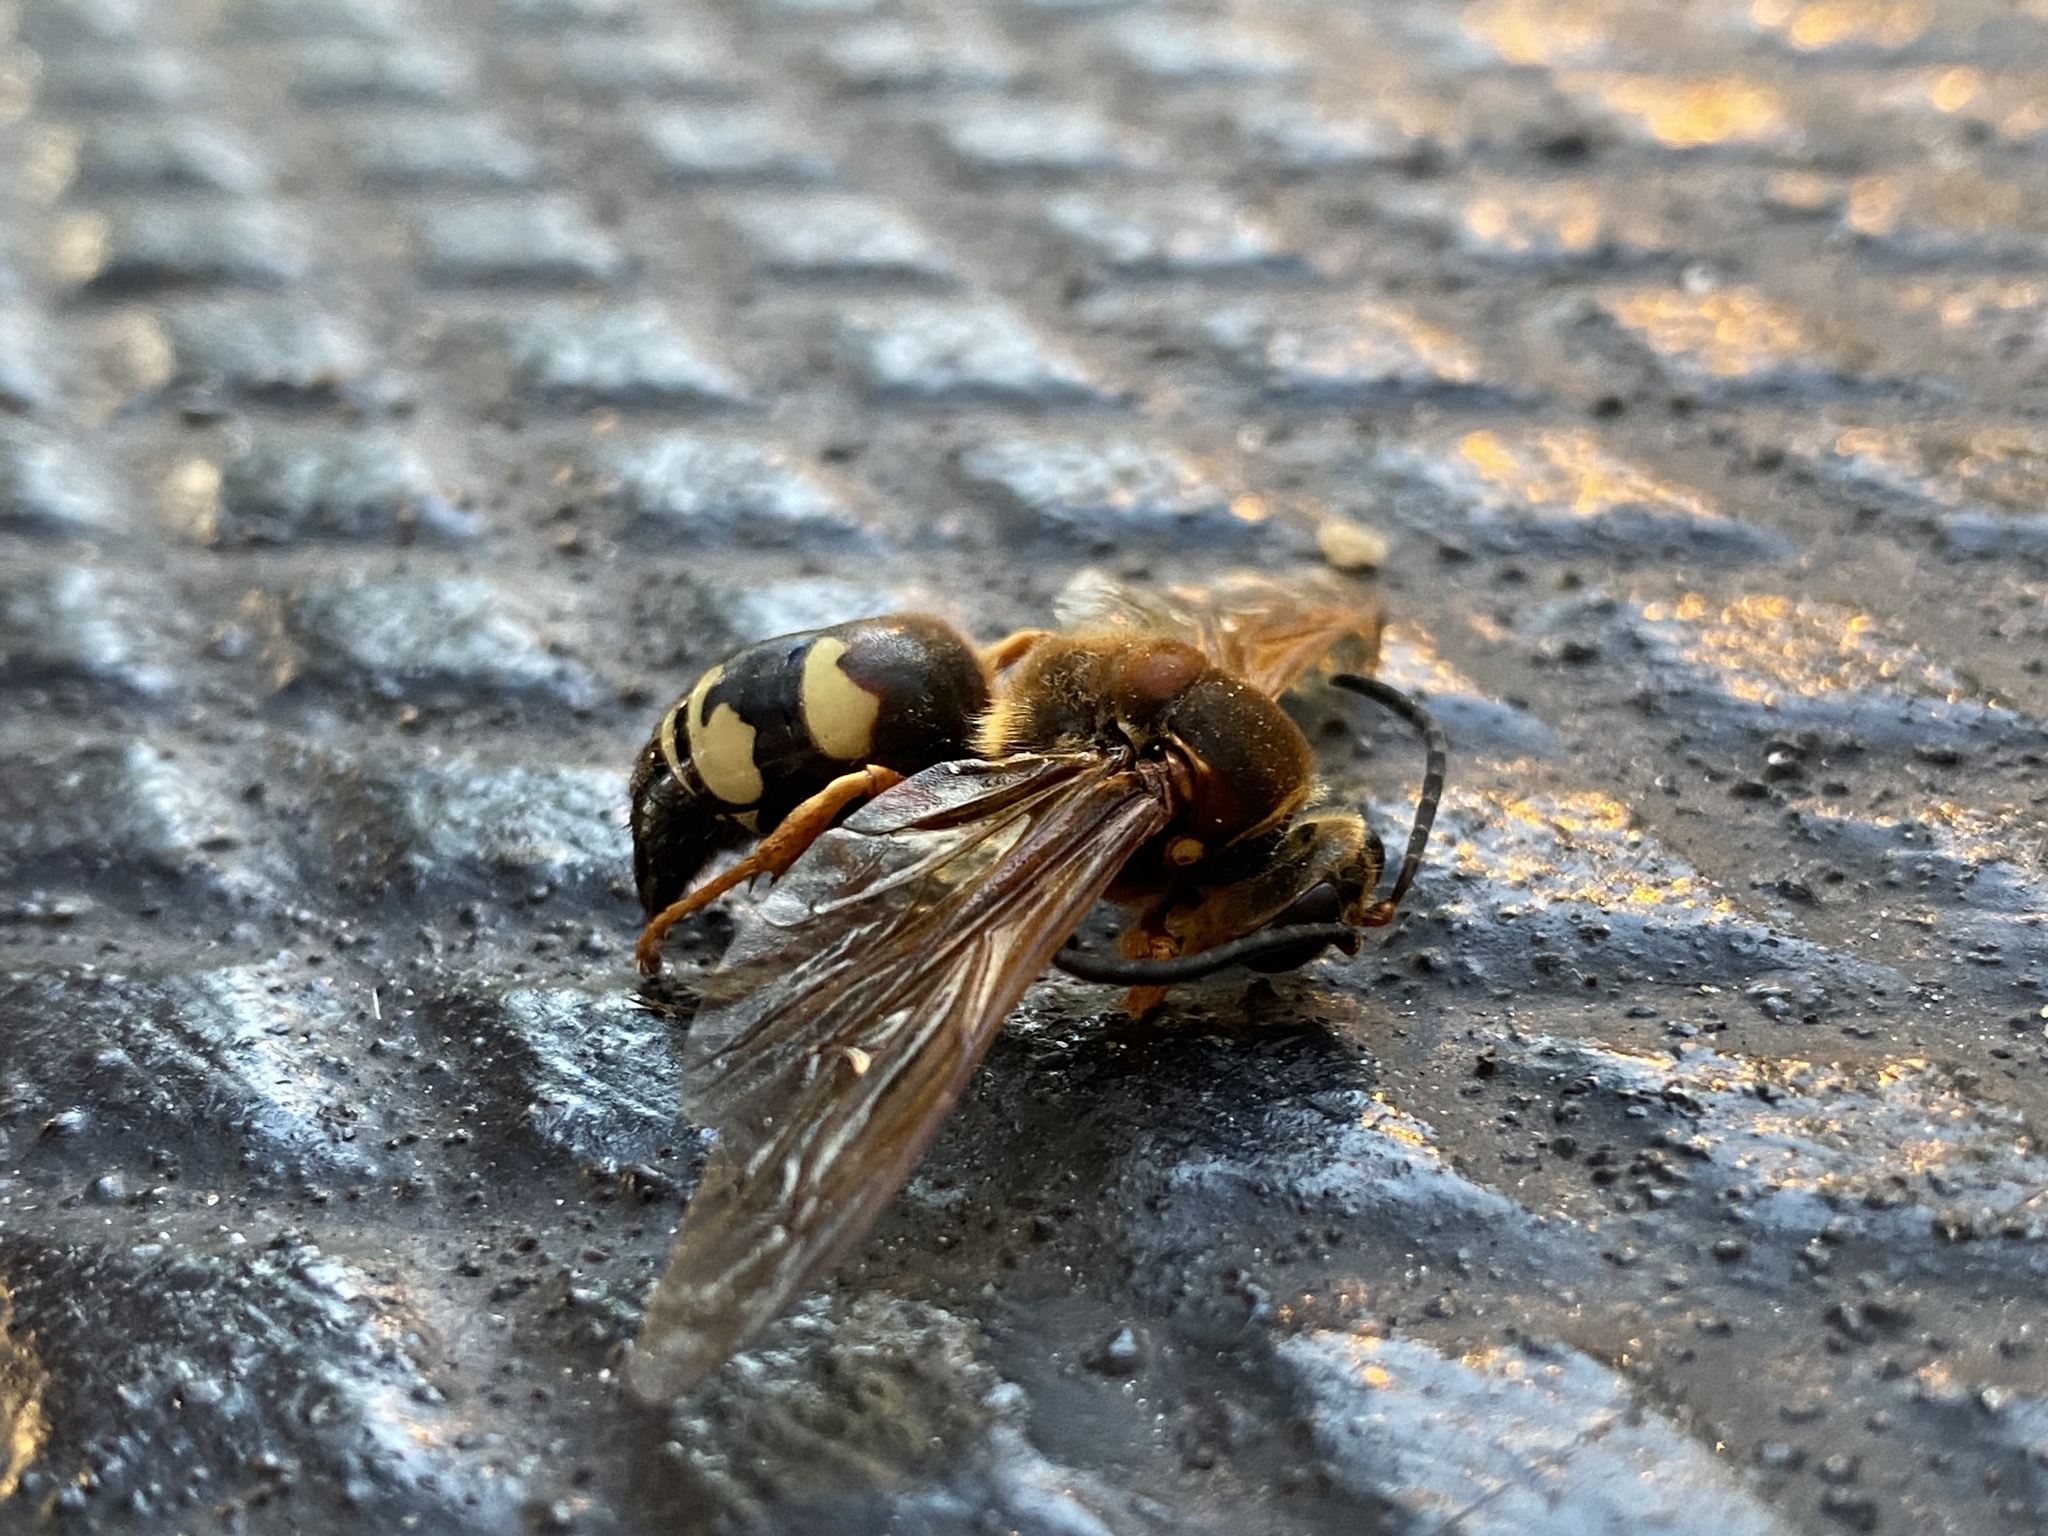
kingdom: Animalia
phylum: Arthropoda
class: Insecta
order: Hymenoptera
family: Crabronidae
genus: Sphecius
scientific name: Sphecius speciosus
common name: Cicada killer
